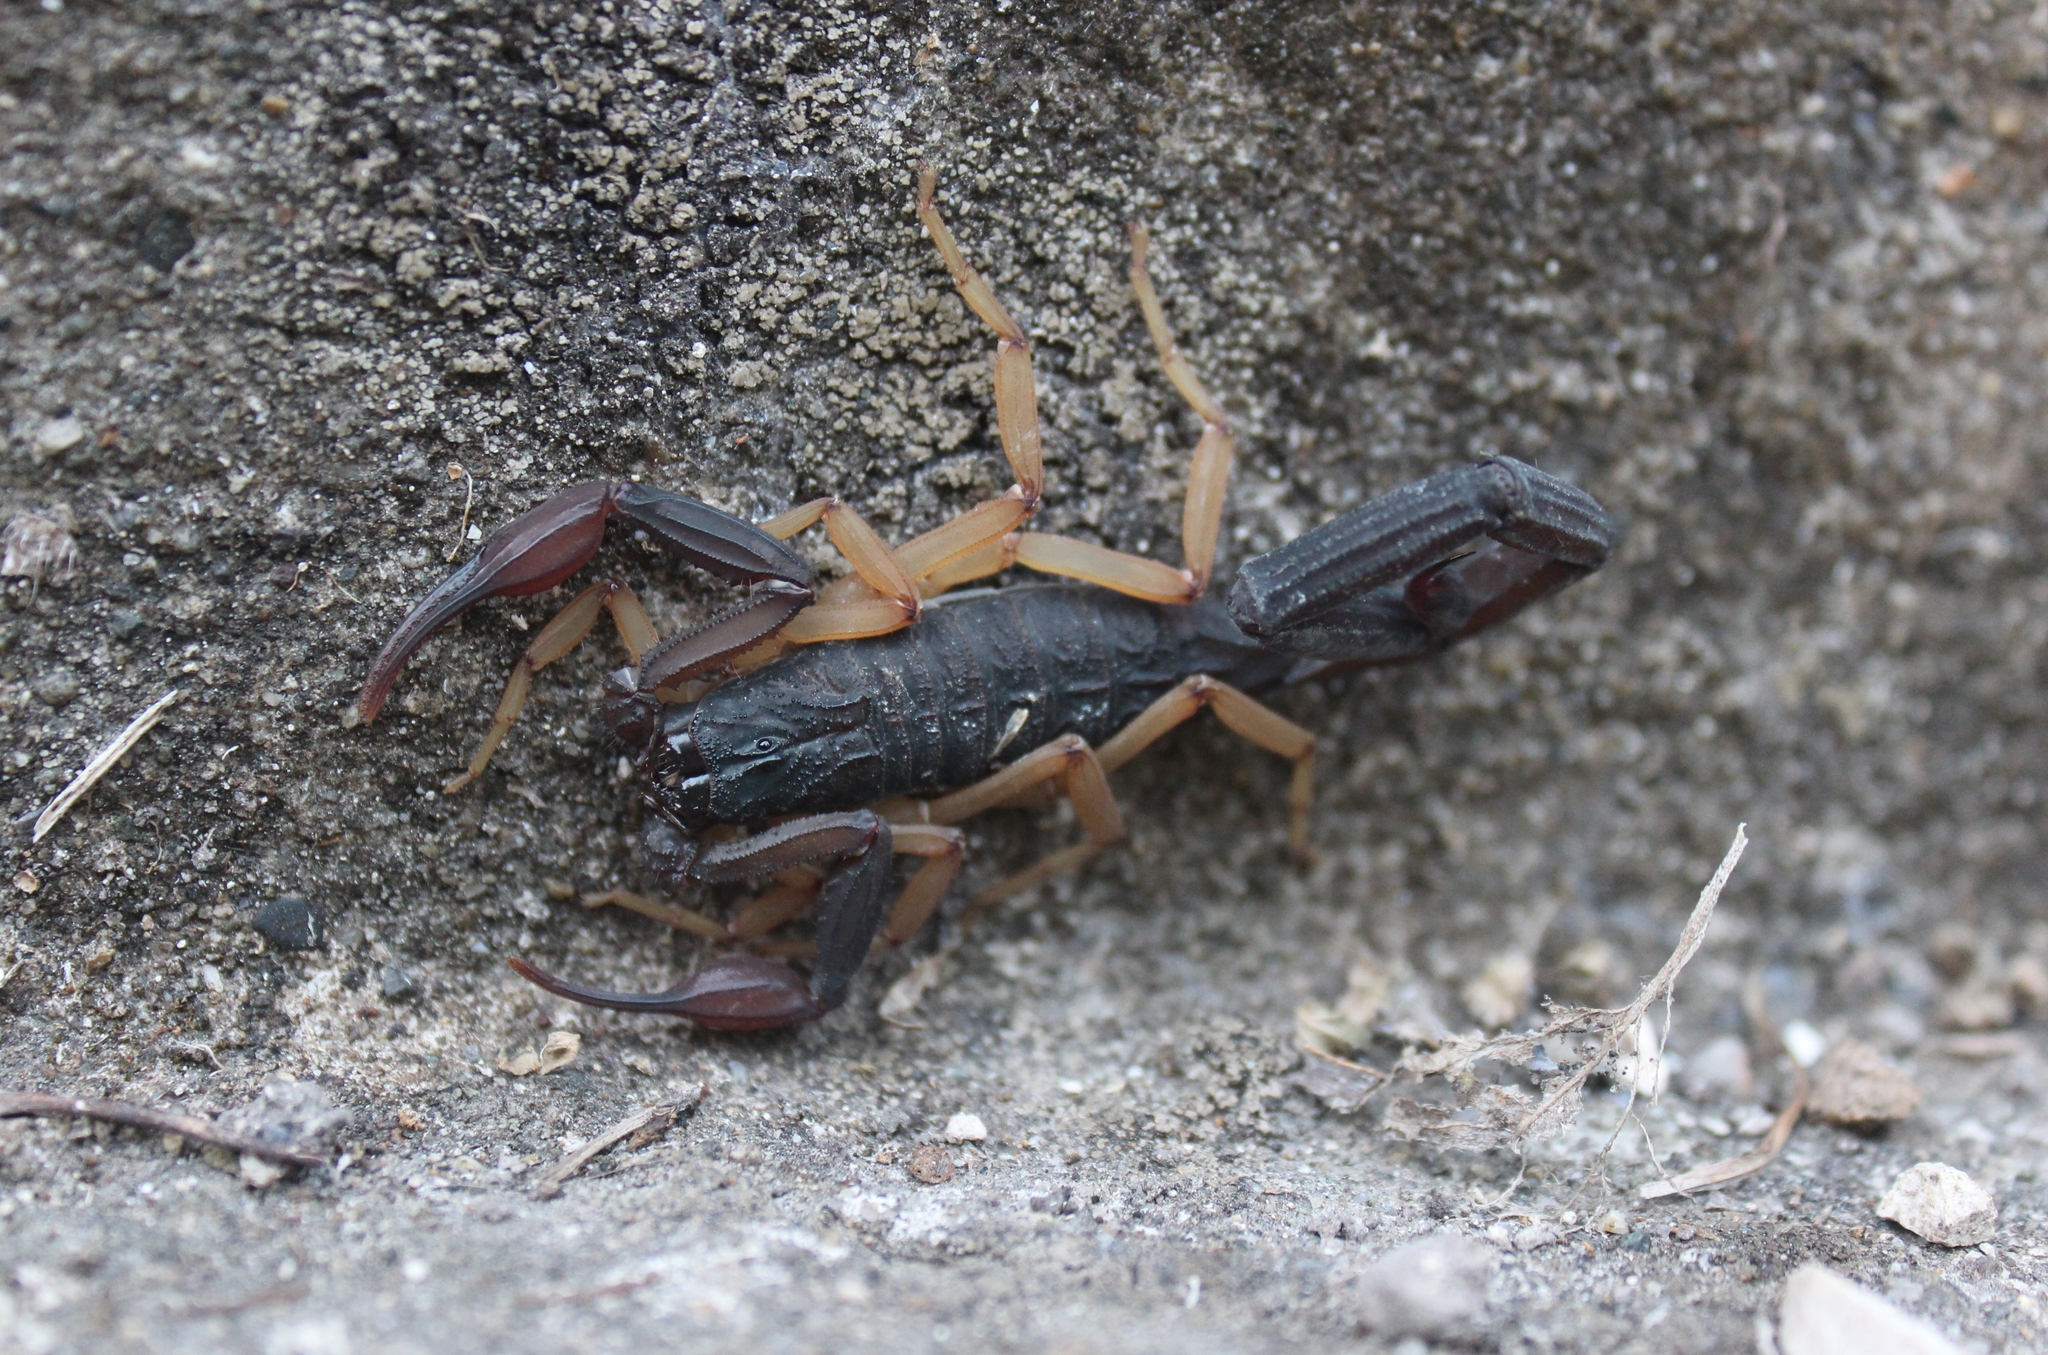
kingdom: Animalia
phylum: Arthropoda
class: Arachnida
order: Scorpiones
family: Buthidae
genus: Centruroides
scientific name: Centruroides gracilis
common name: Scorpions
